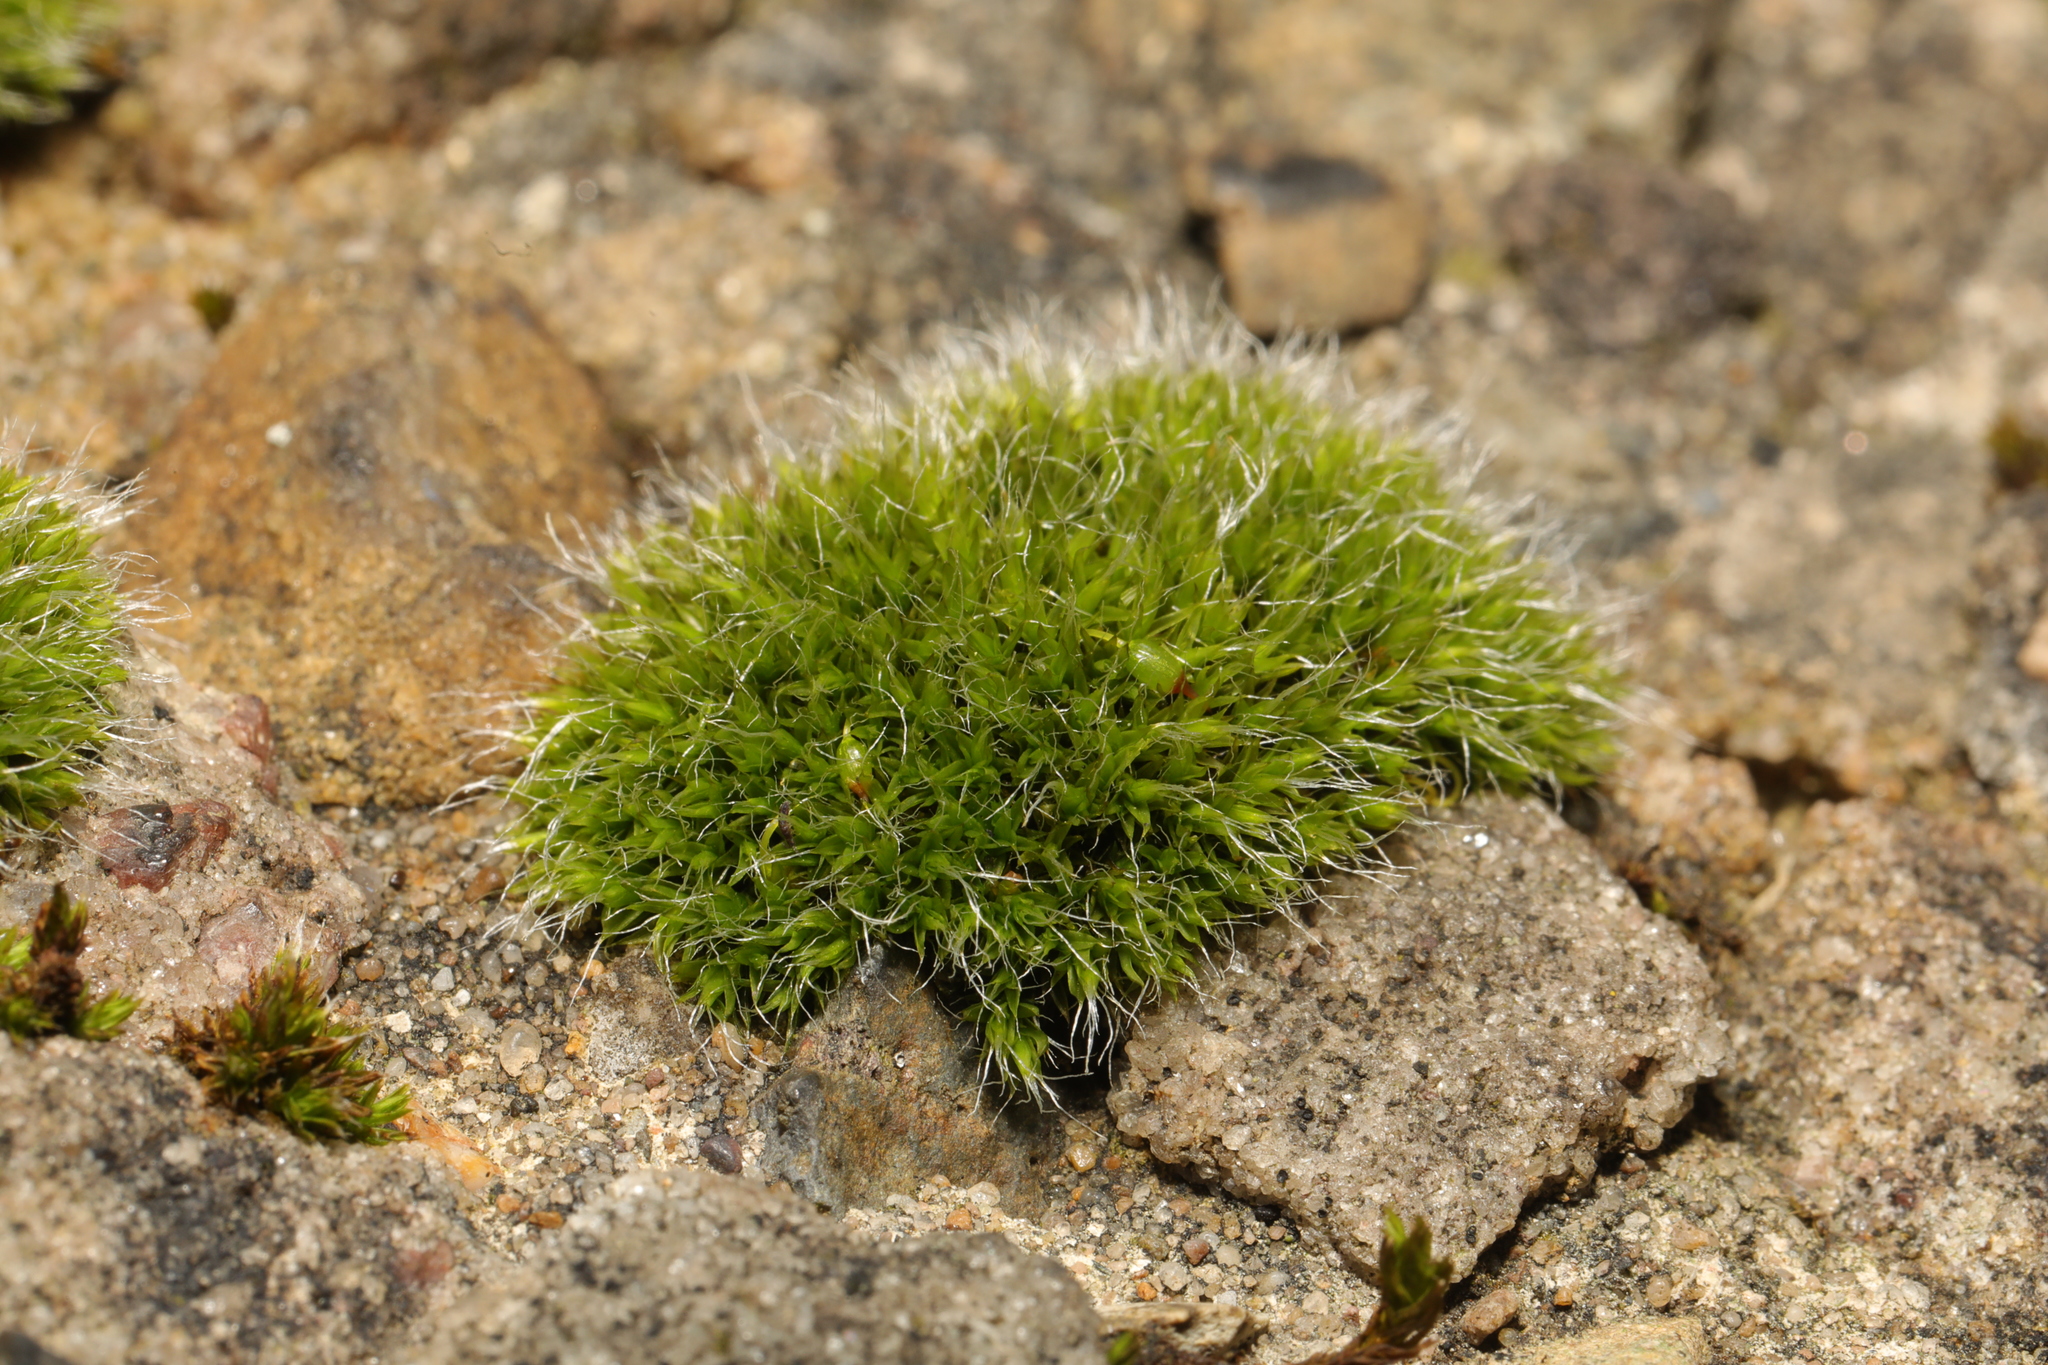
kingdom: Plantae
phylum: Bryophyta
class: Bryopsida
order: Grimmiales
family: Grimmiaceae
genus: Grimmia
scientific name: Grimmia pulvinata
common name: Grey-cushioned grimmia
